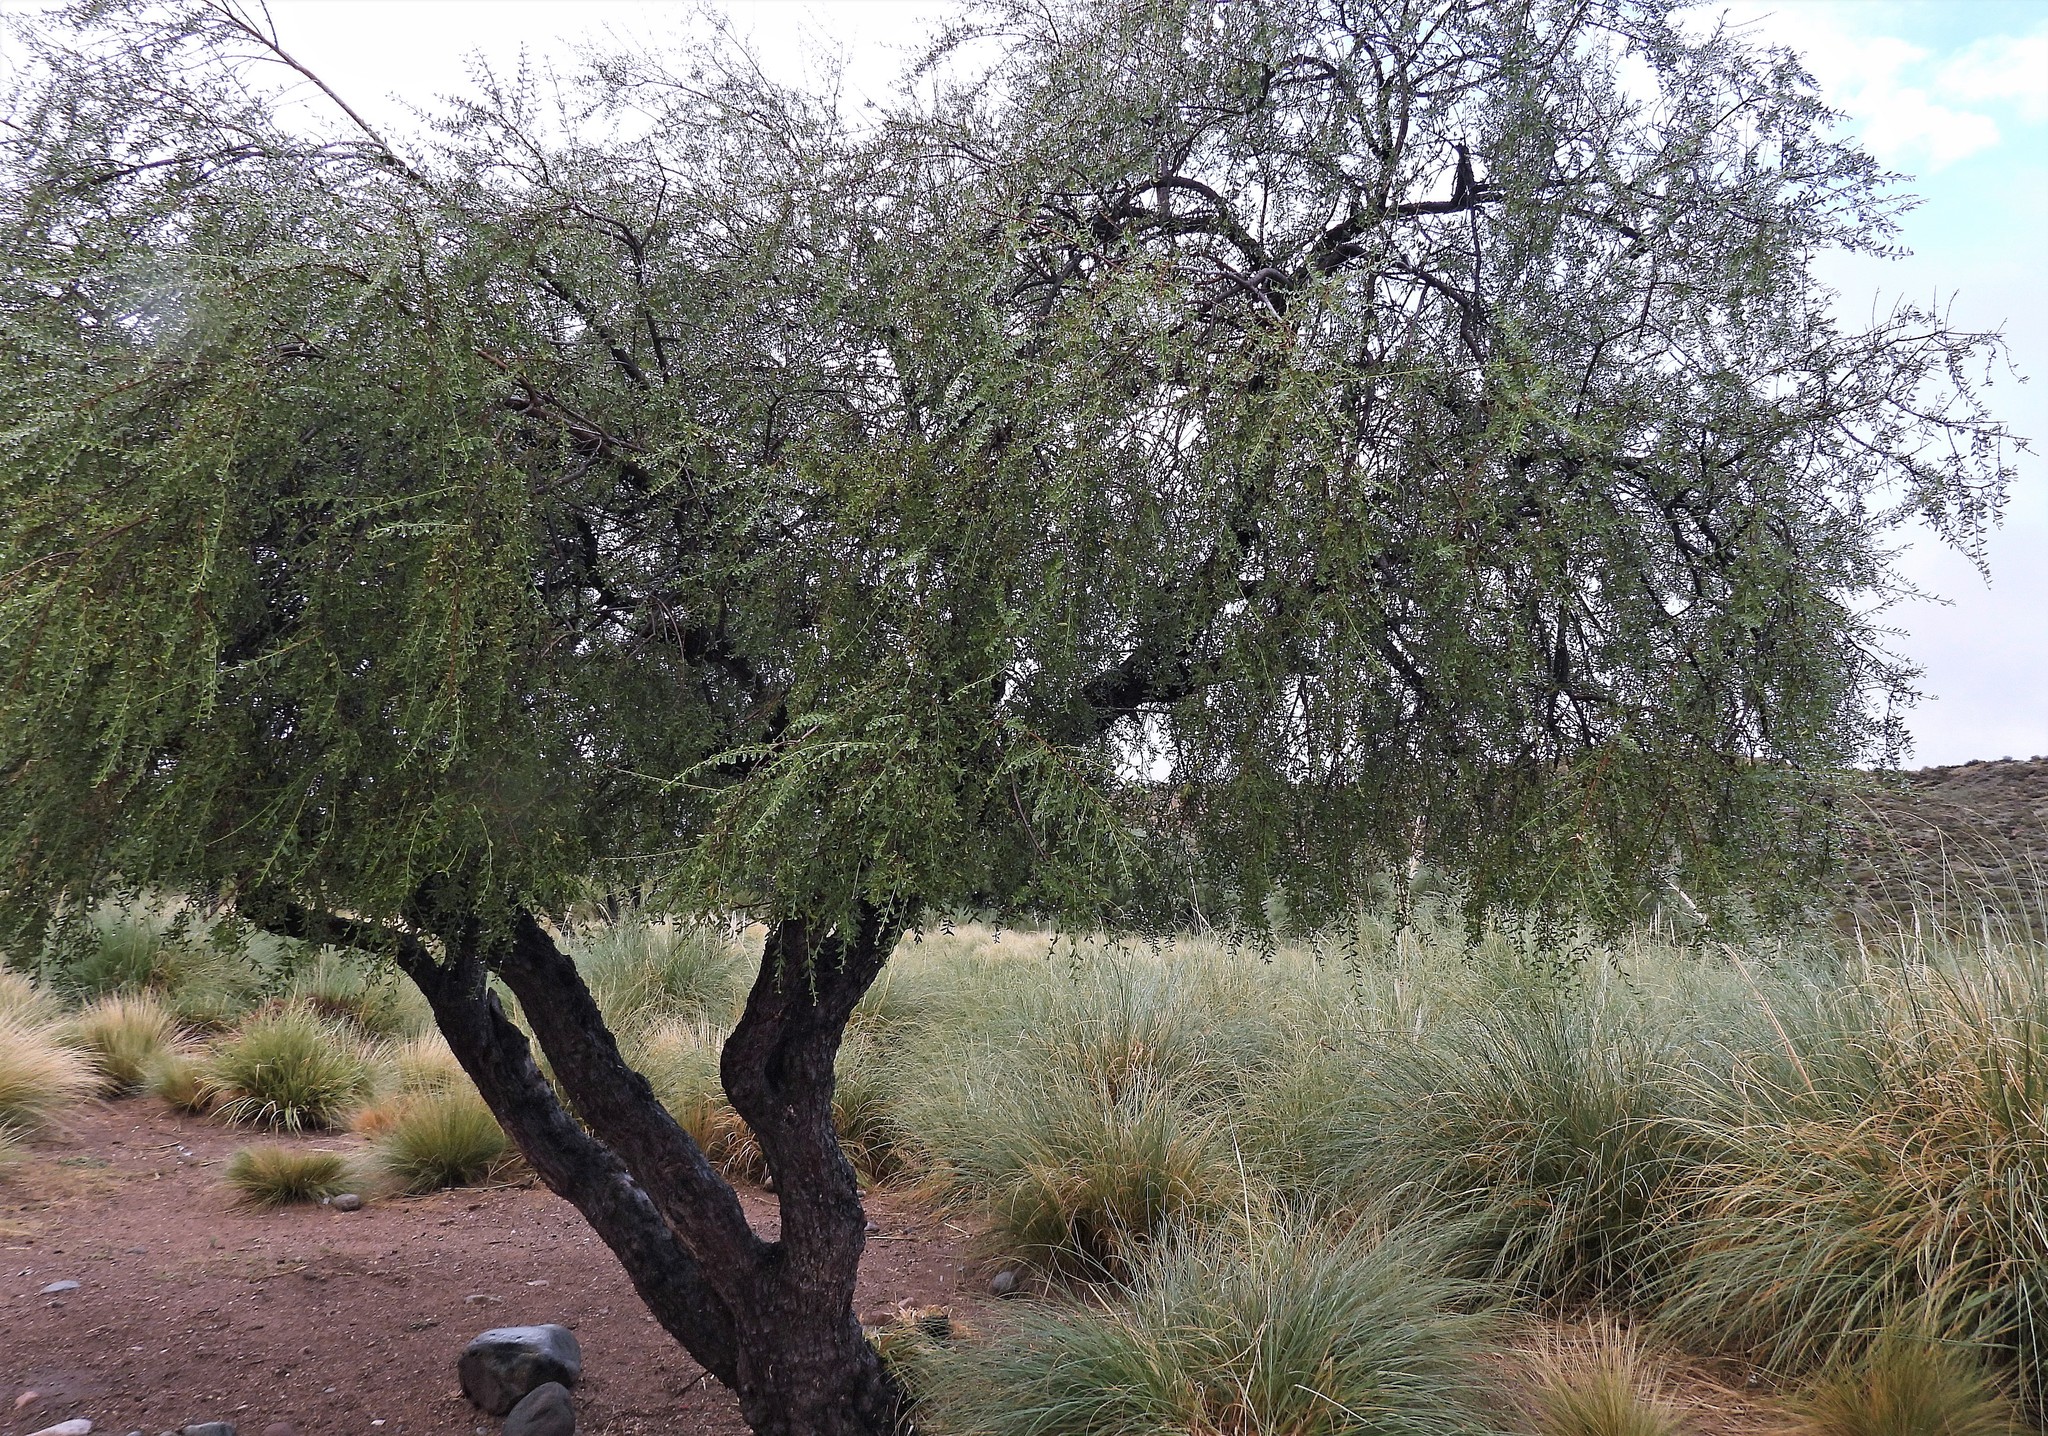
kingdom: Plantae
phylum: Tracheophyta
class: Magnoliopsida
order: Rosales
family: Rhamnaceae
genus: Ochetophila
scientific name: Ochetophila trinervis
